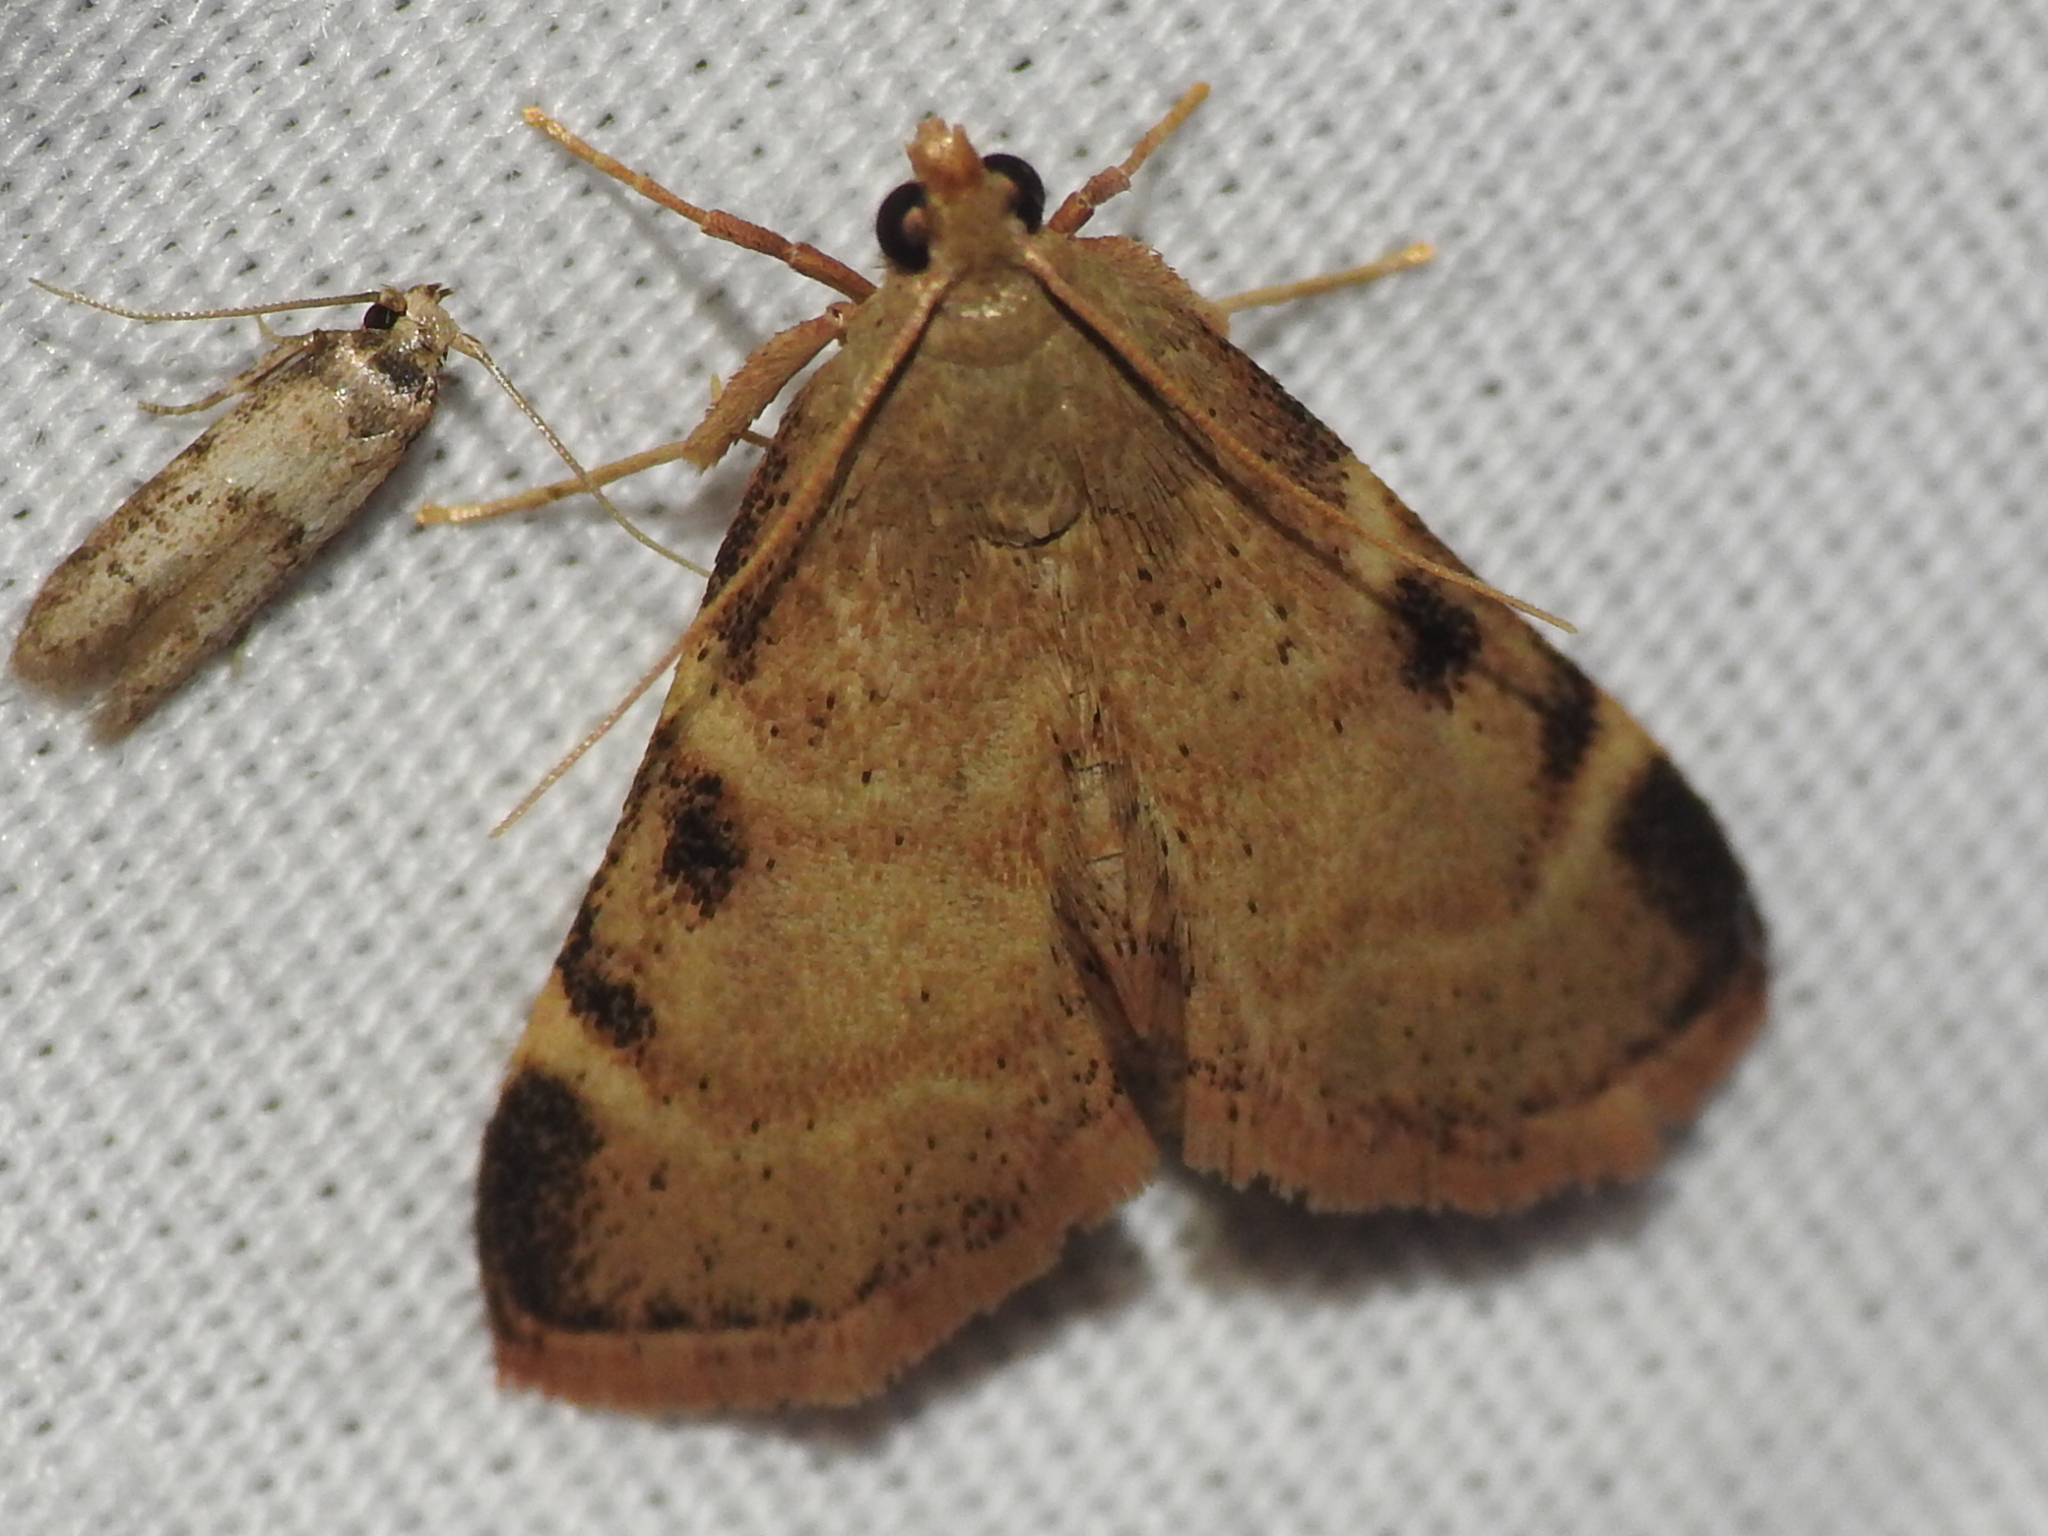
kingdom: Animalia
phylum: Arthropoda
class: Insecta
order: Lepidoptera
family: Pyralidae
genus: Hypsopygia
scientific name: Hypsopygia
